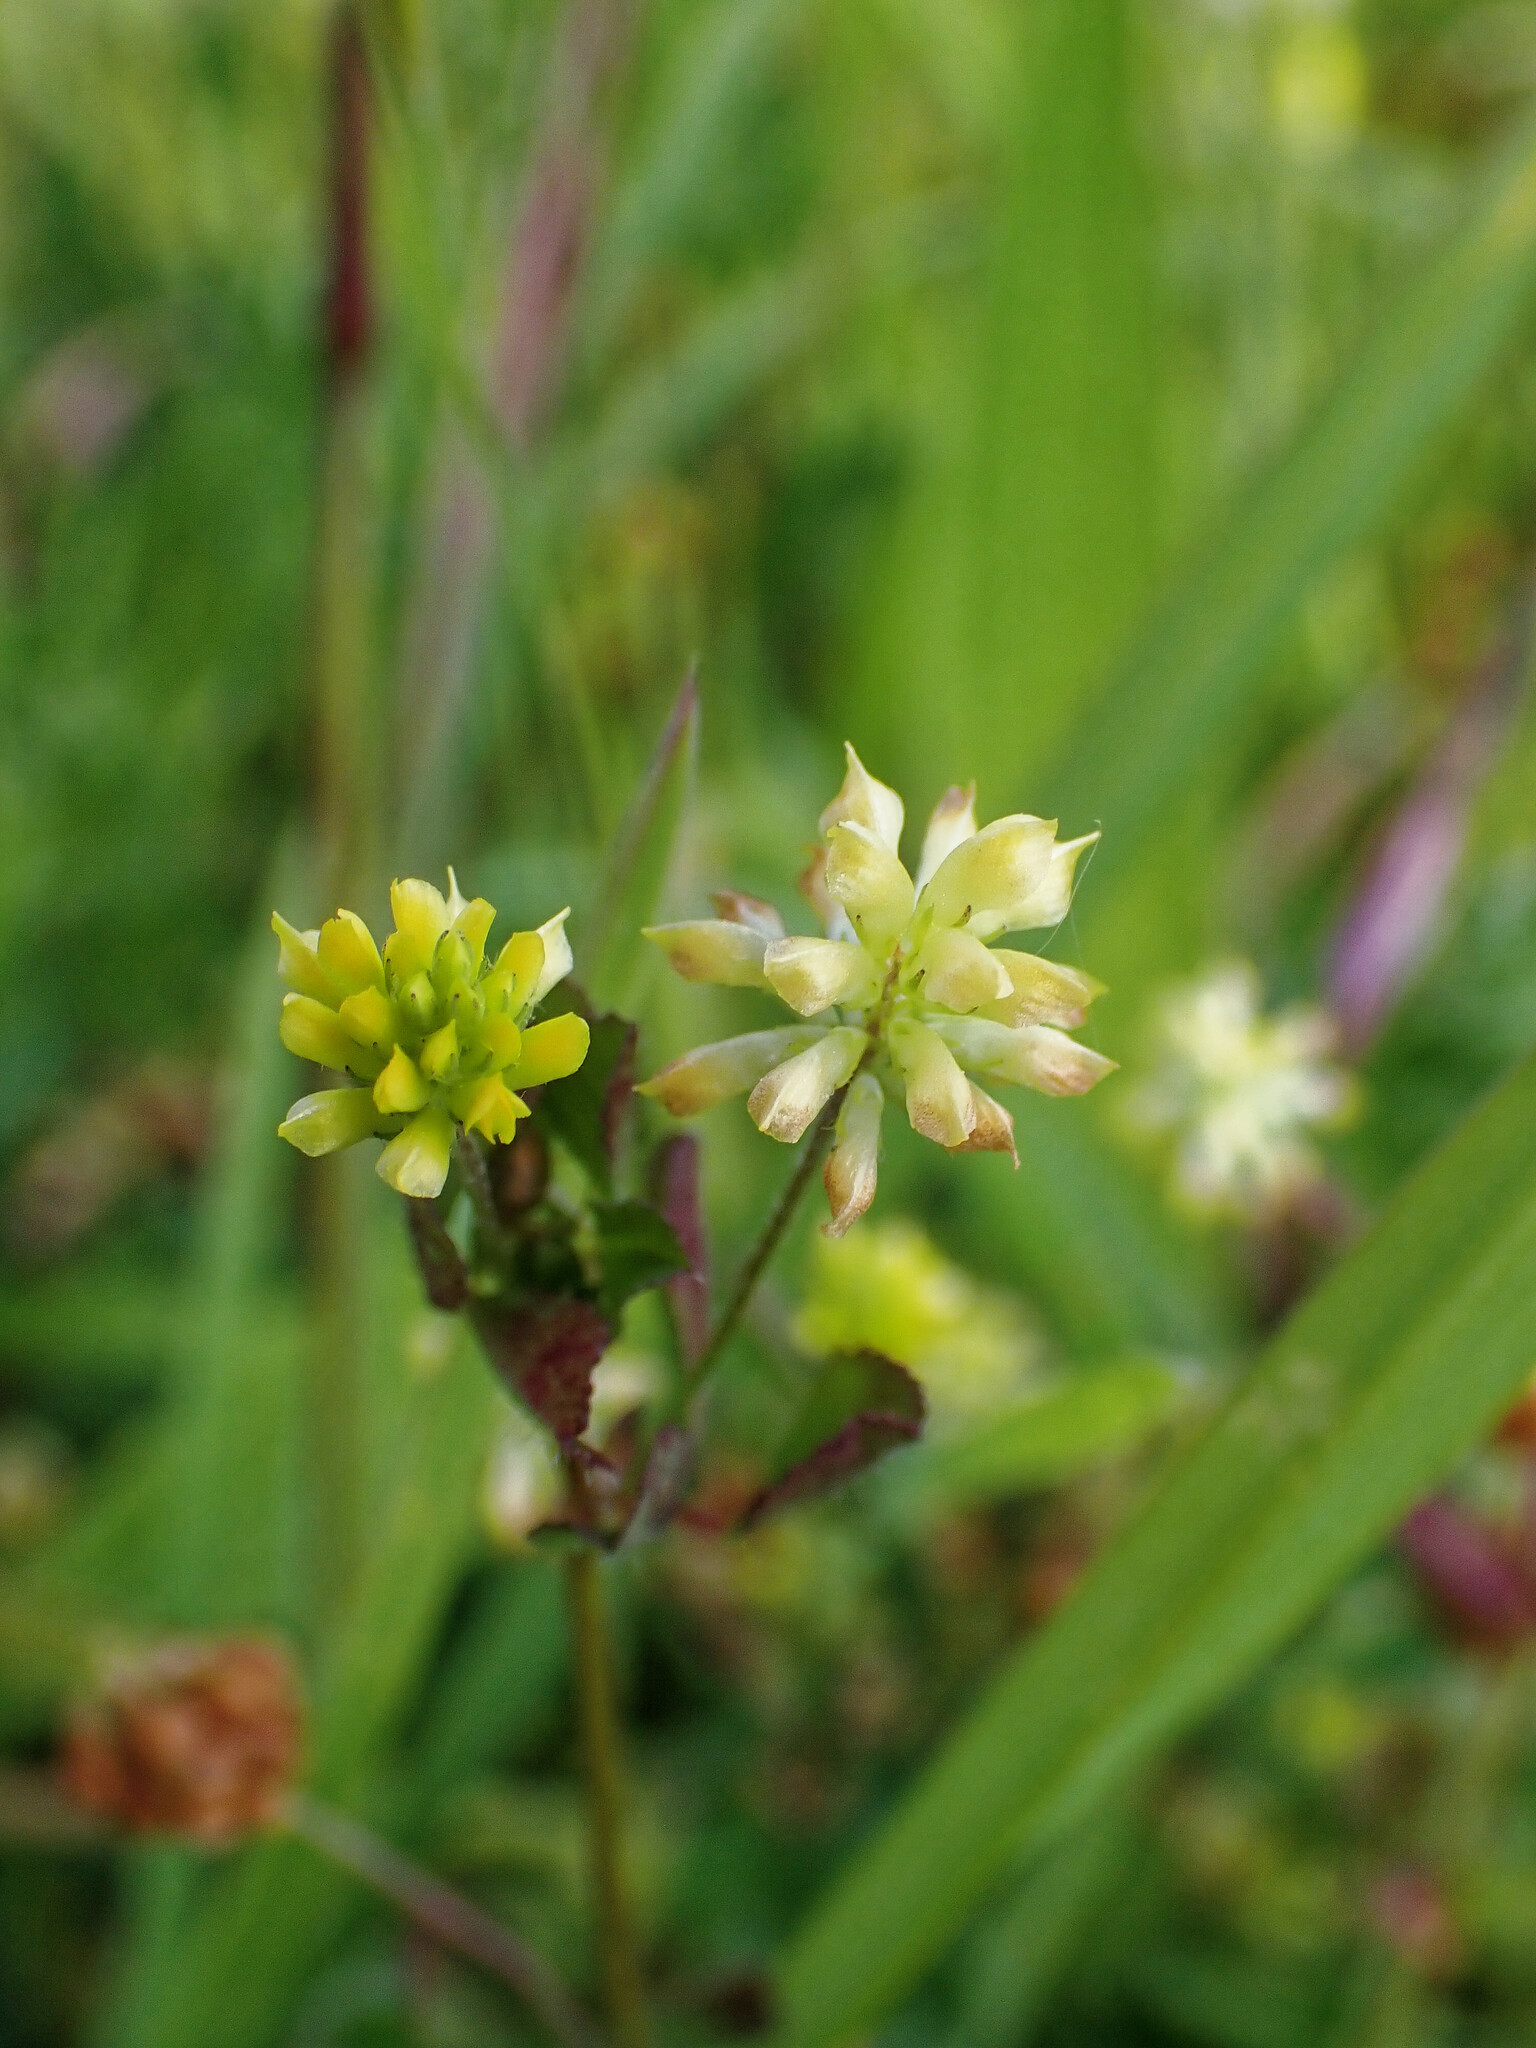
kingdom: Plantae
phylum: Tracheophyta
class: Magnoliopsida
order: Fabales
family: Fabaceae
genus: Trifolium
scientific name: Trifolium dubium
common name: Suckling clover
